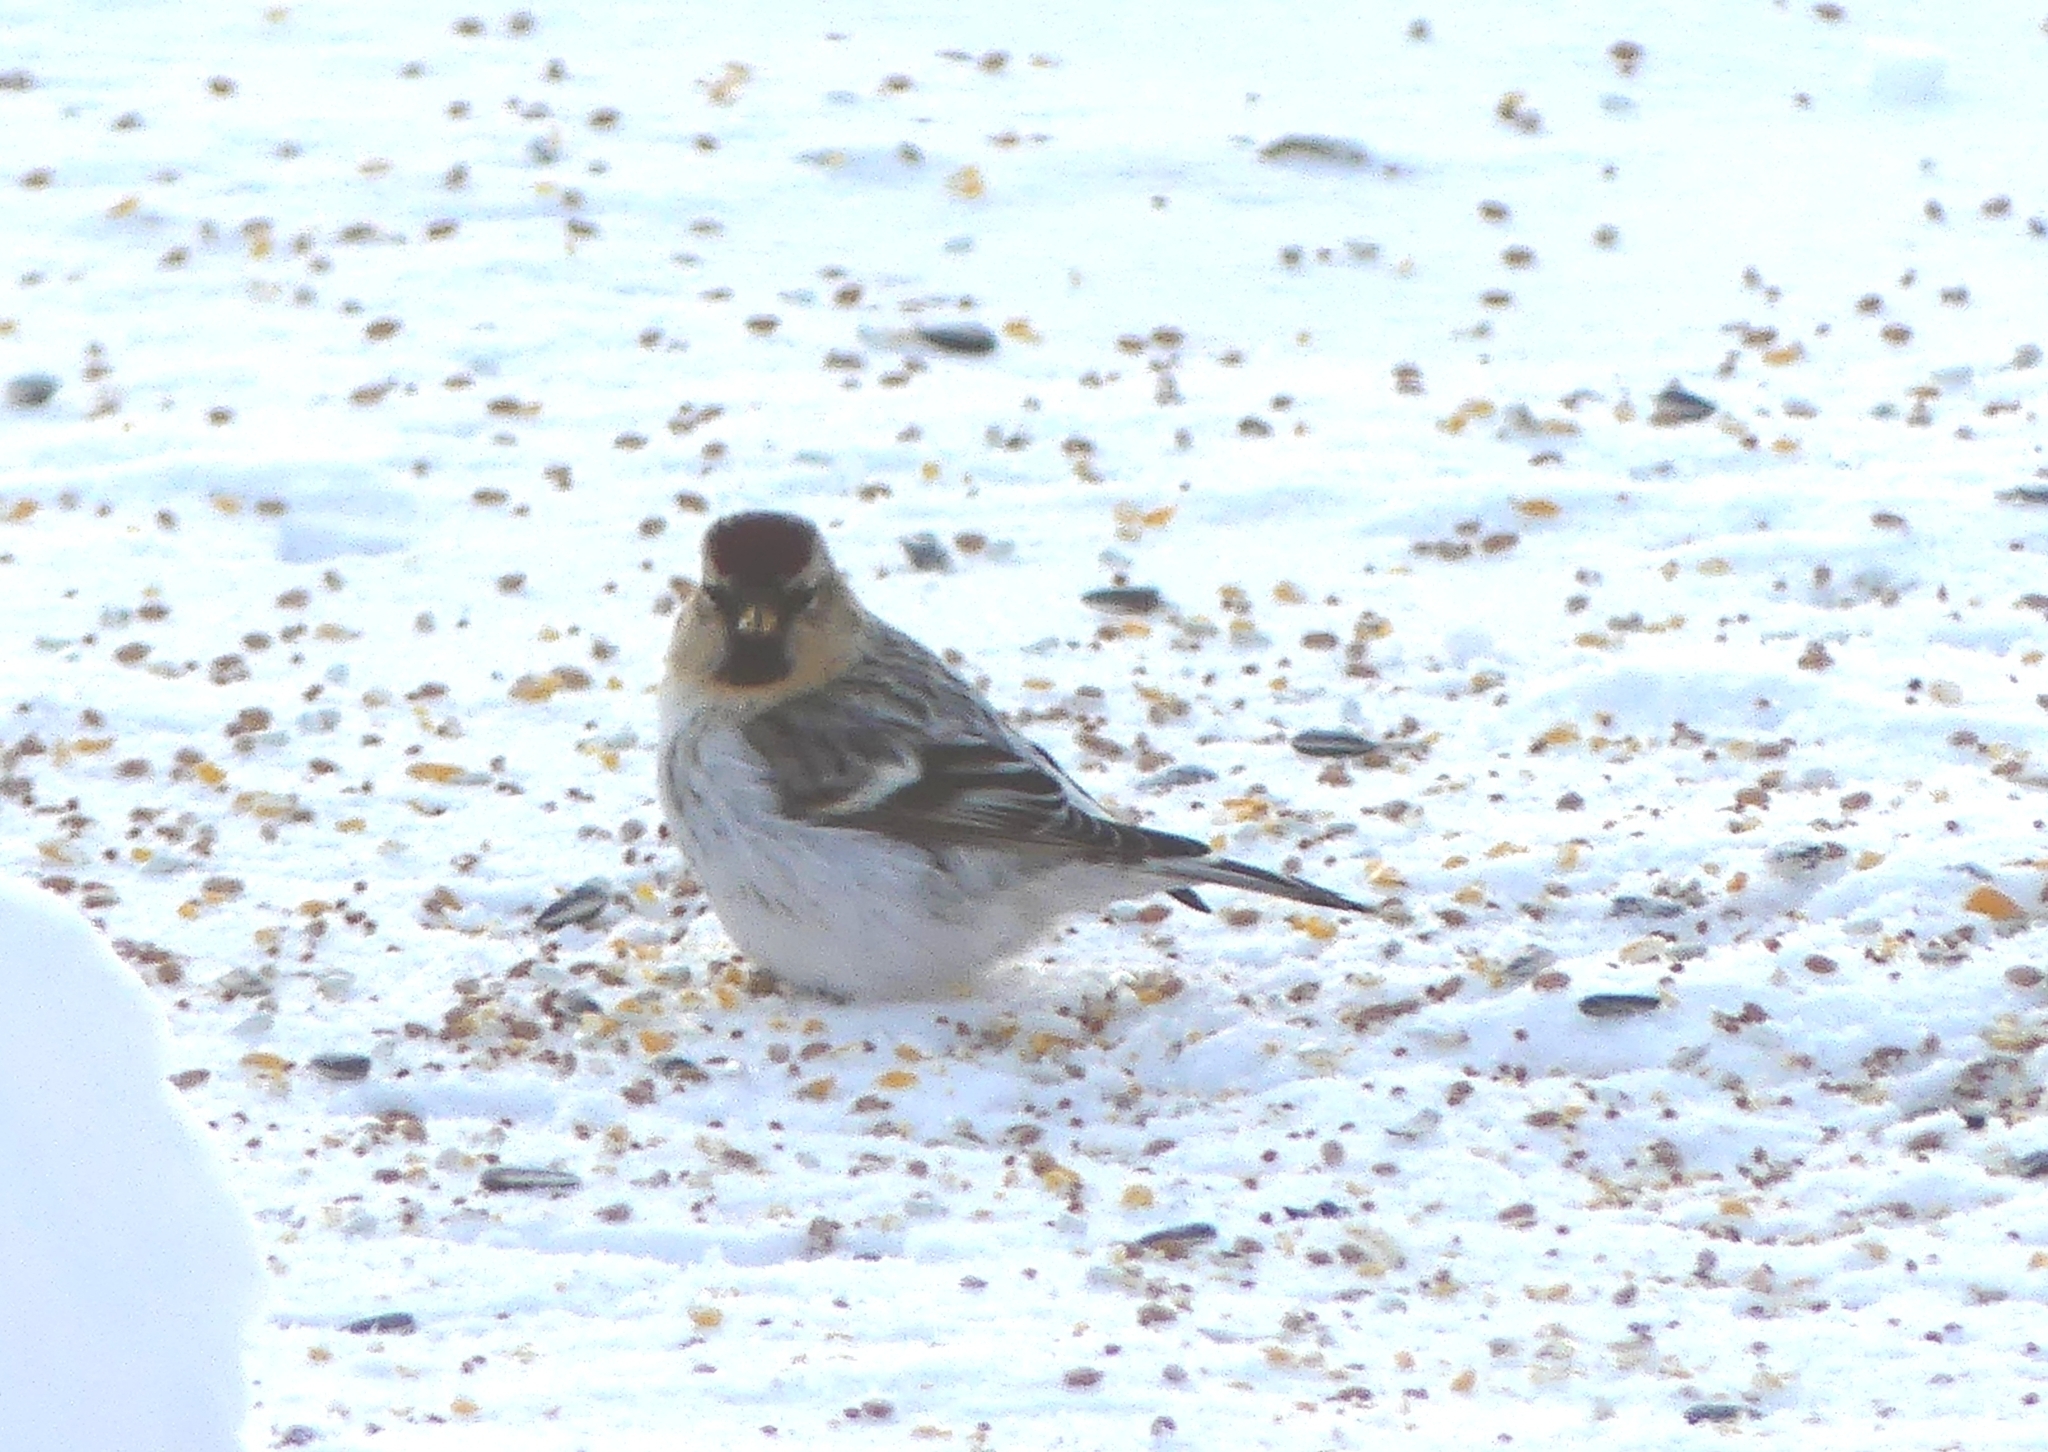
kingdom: Animalia
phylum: Chordata
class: Aves
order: Passeriformes
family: Fringillidae
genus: Acanthis
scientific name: Acanthis hornemanni
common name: Arctic redpoll
